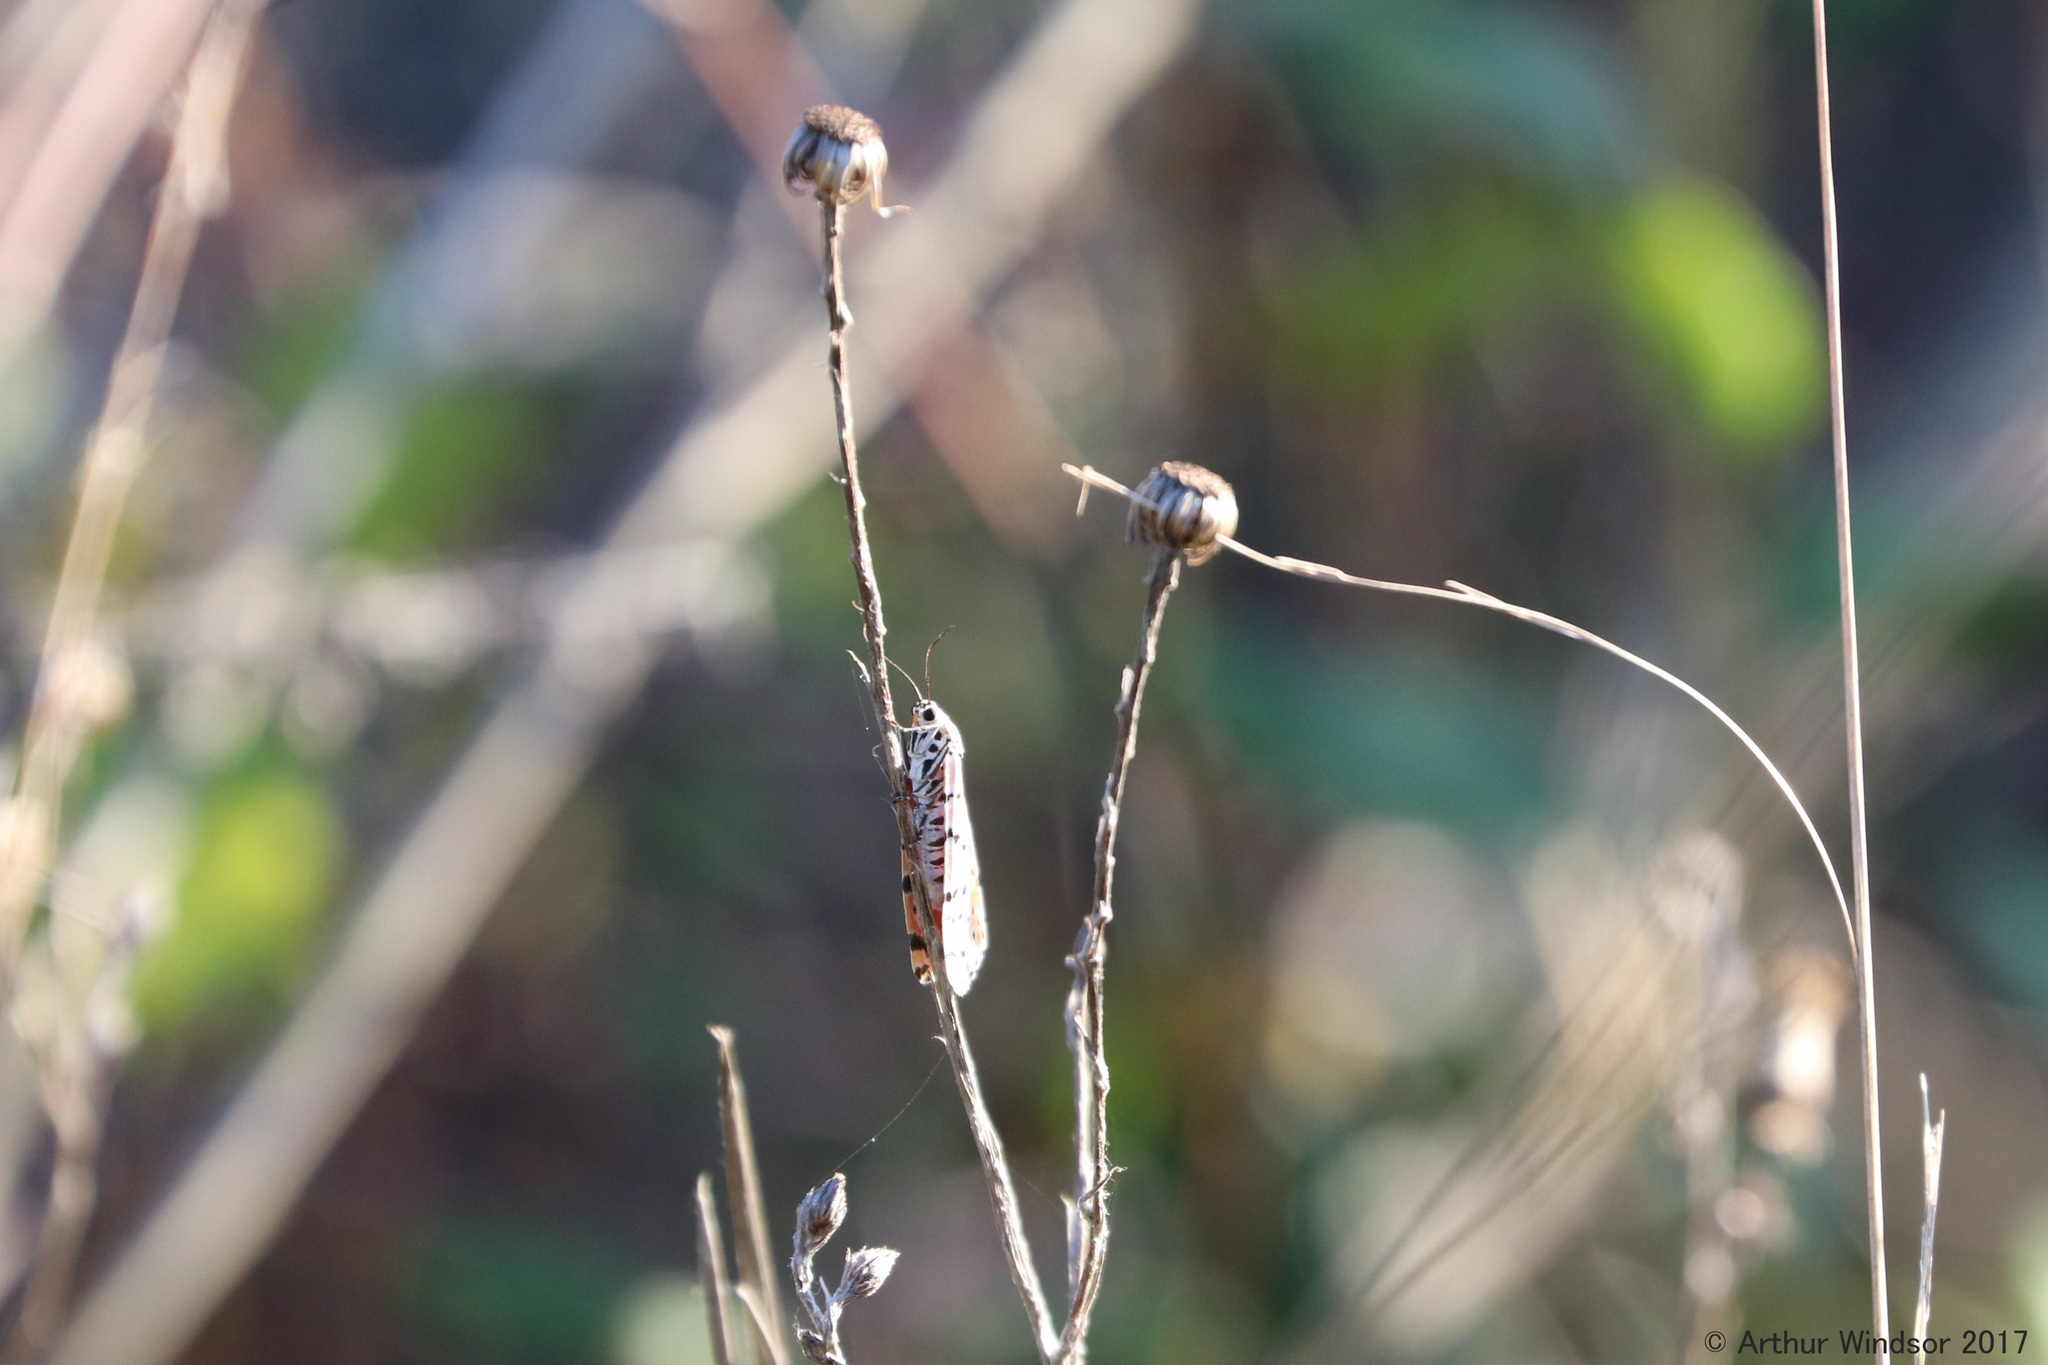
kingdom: Animalia
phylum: Arthropoda
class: Insecta
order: Lepidoptera
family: Erebidae
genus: Utetheisa
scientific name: Utetheisa ornatrix
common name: Beautiful utetheisa
